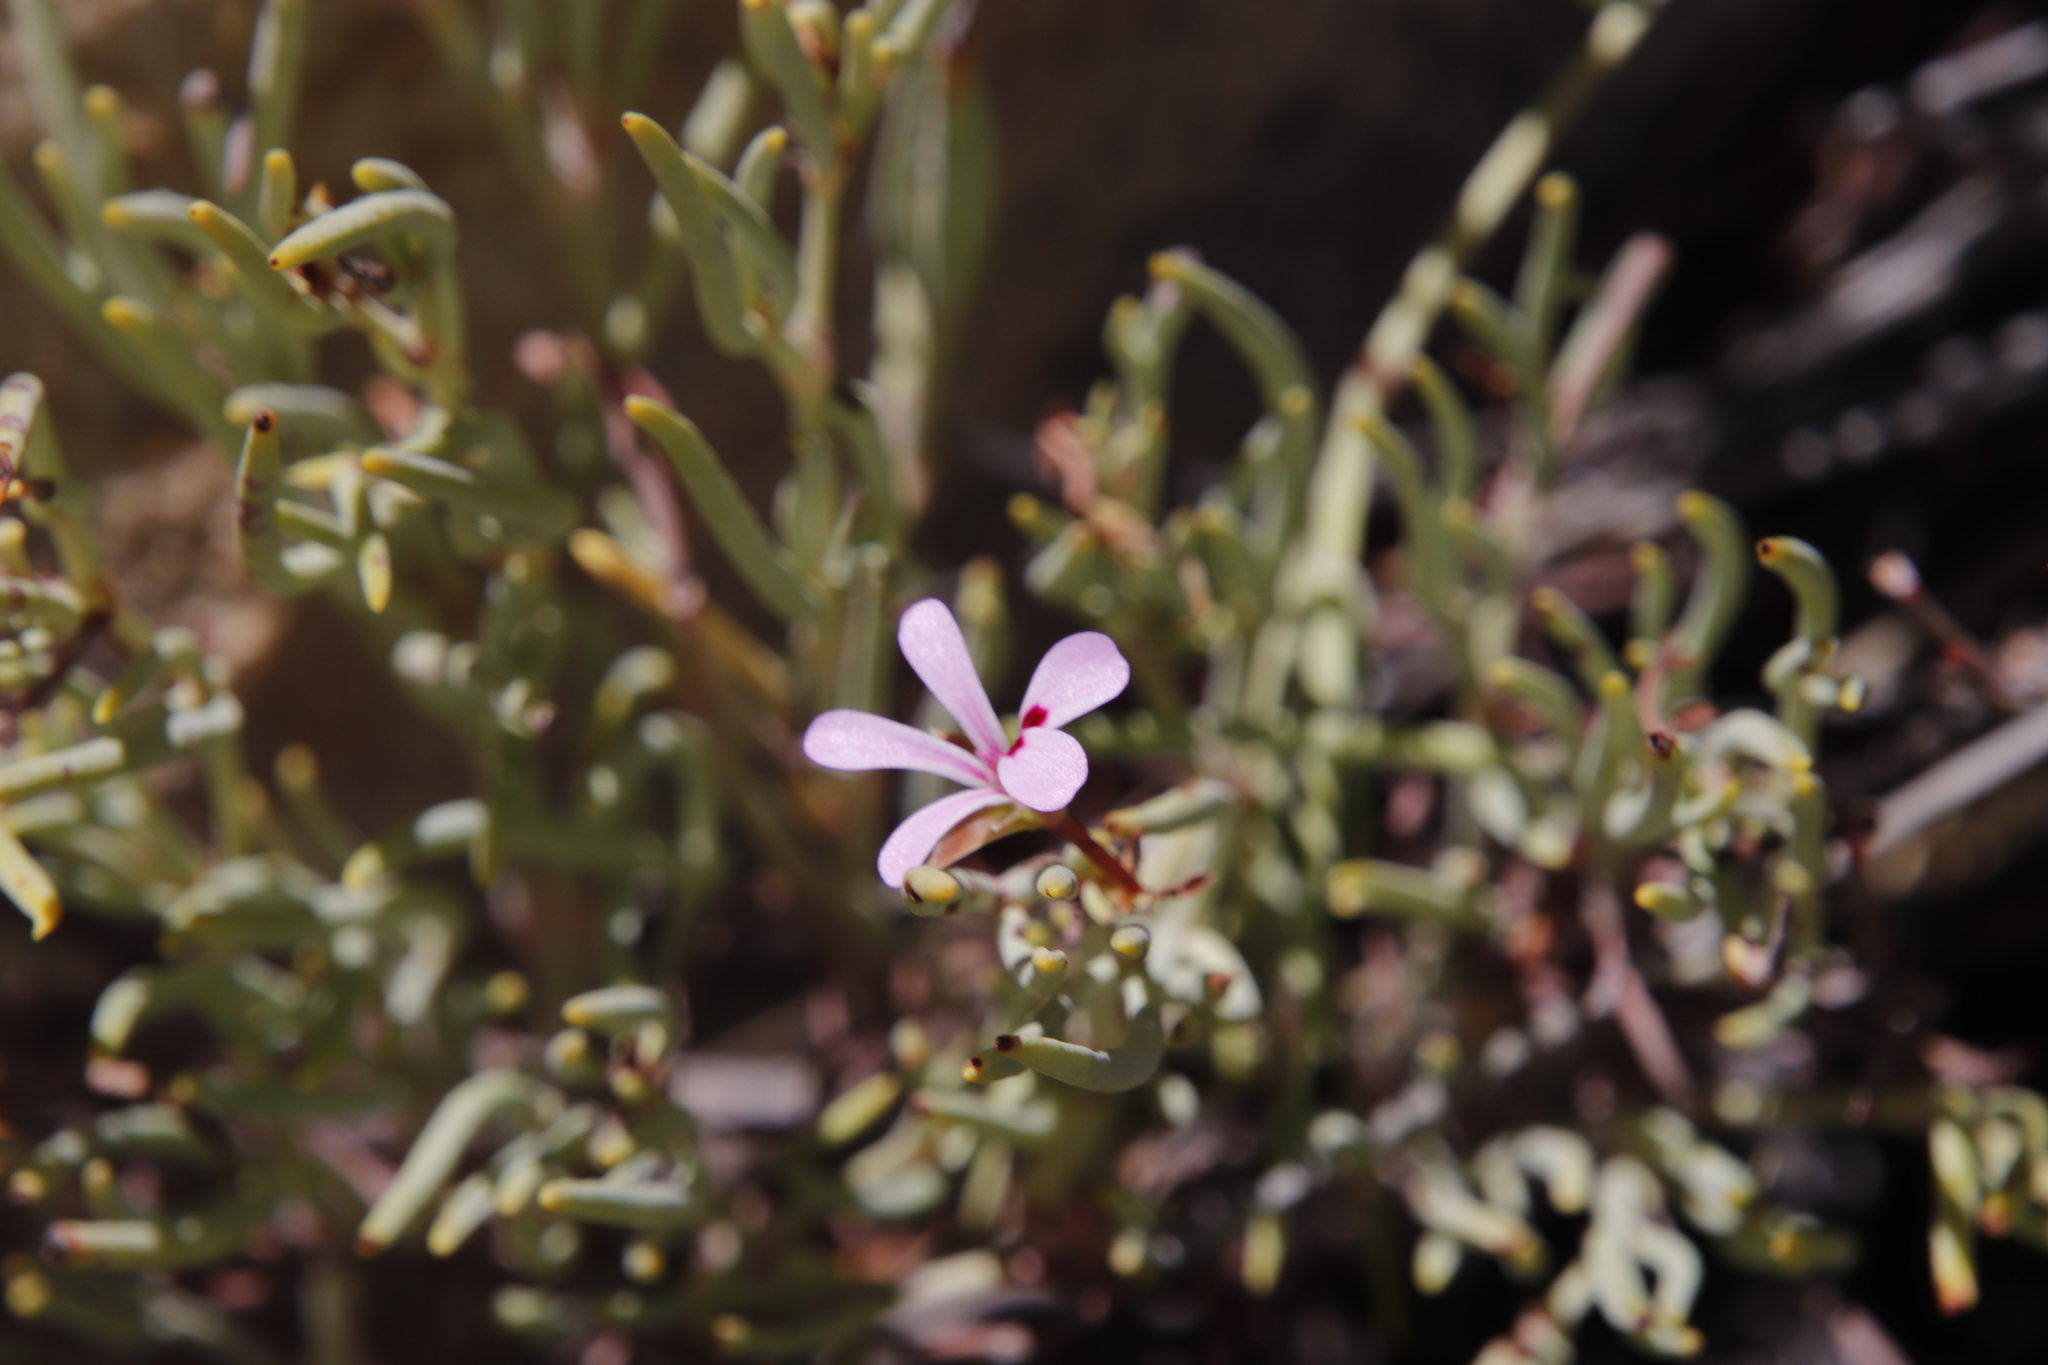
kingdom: Plantae
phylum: Tracheophyta
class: Magnoliopsida
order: Geraniales
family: Geraniaceae
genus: Pelargonium
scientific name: Pelargonium laevigatum
